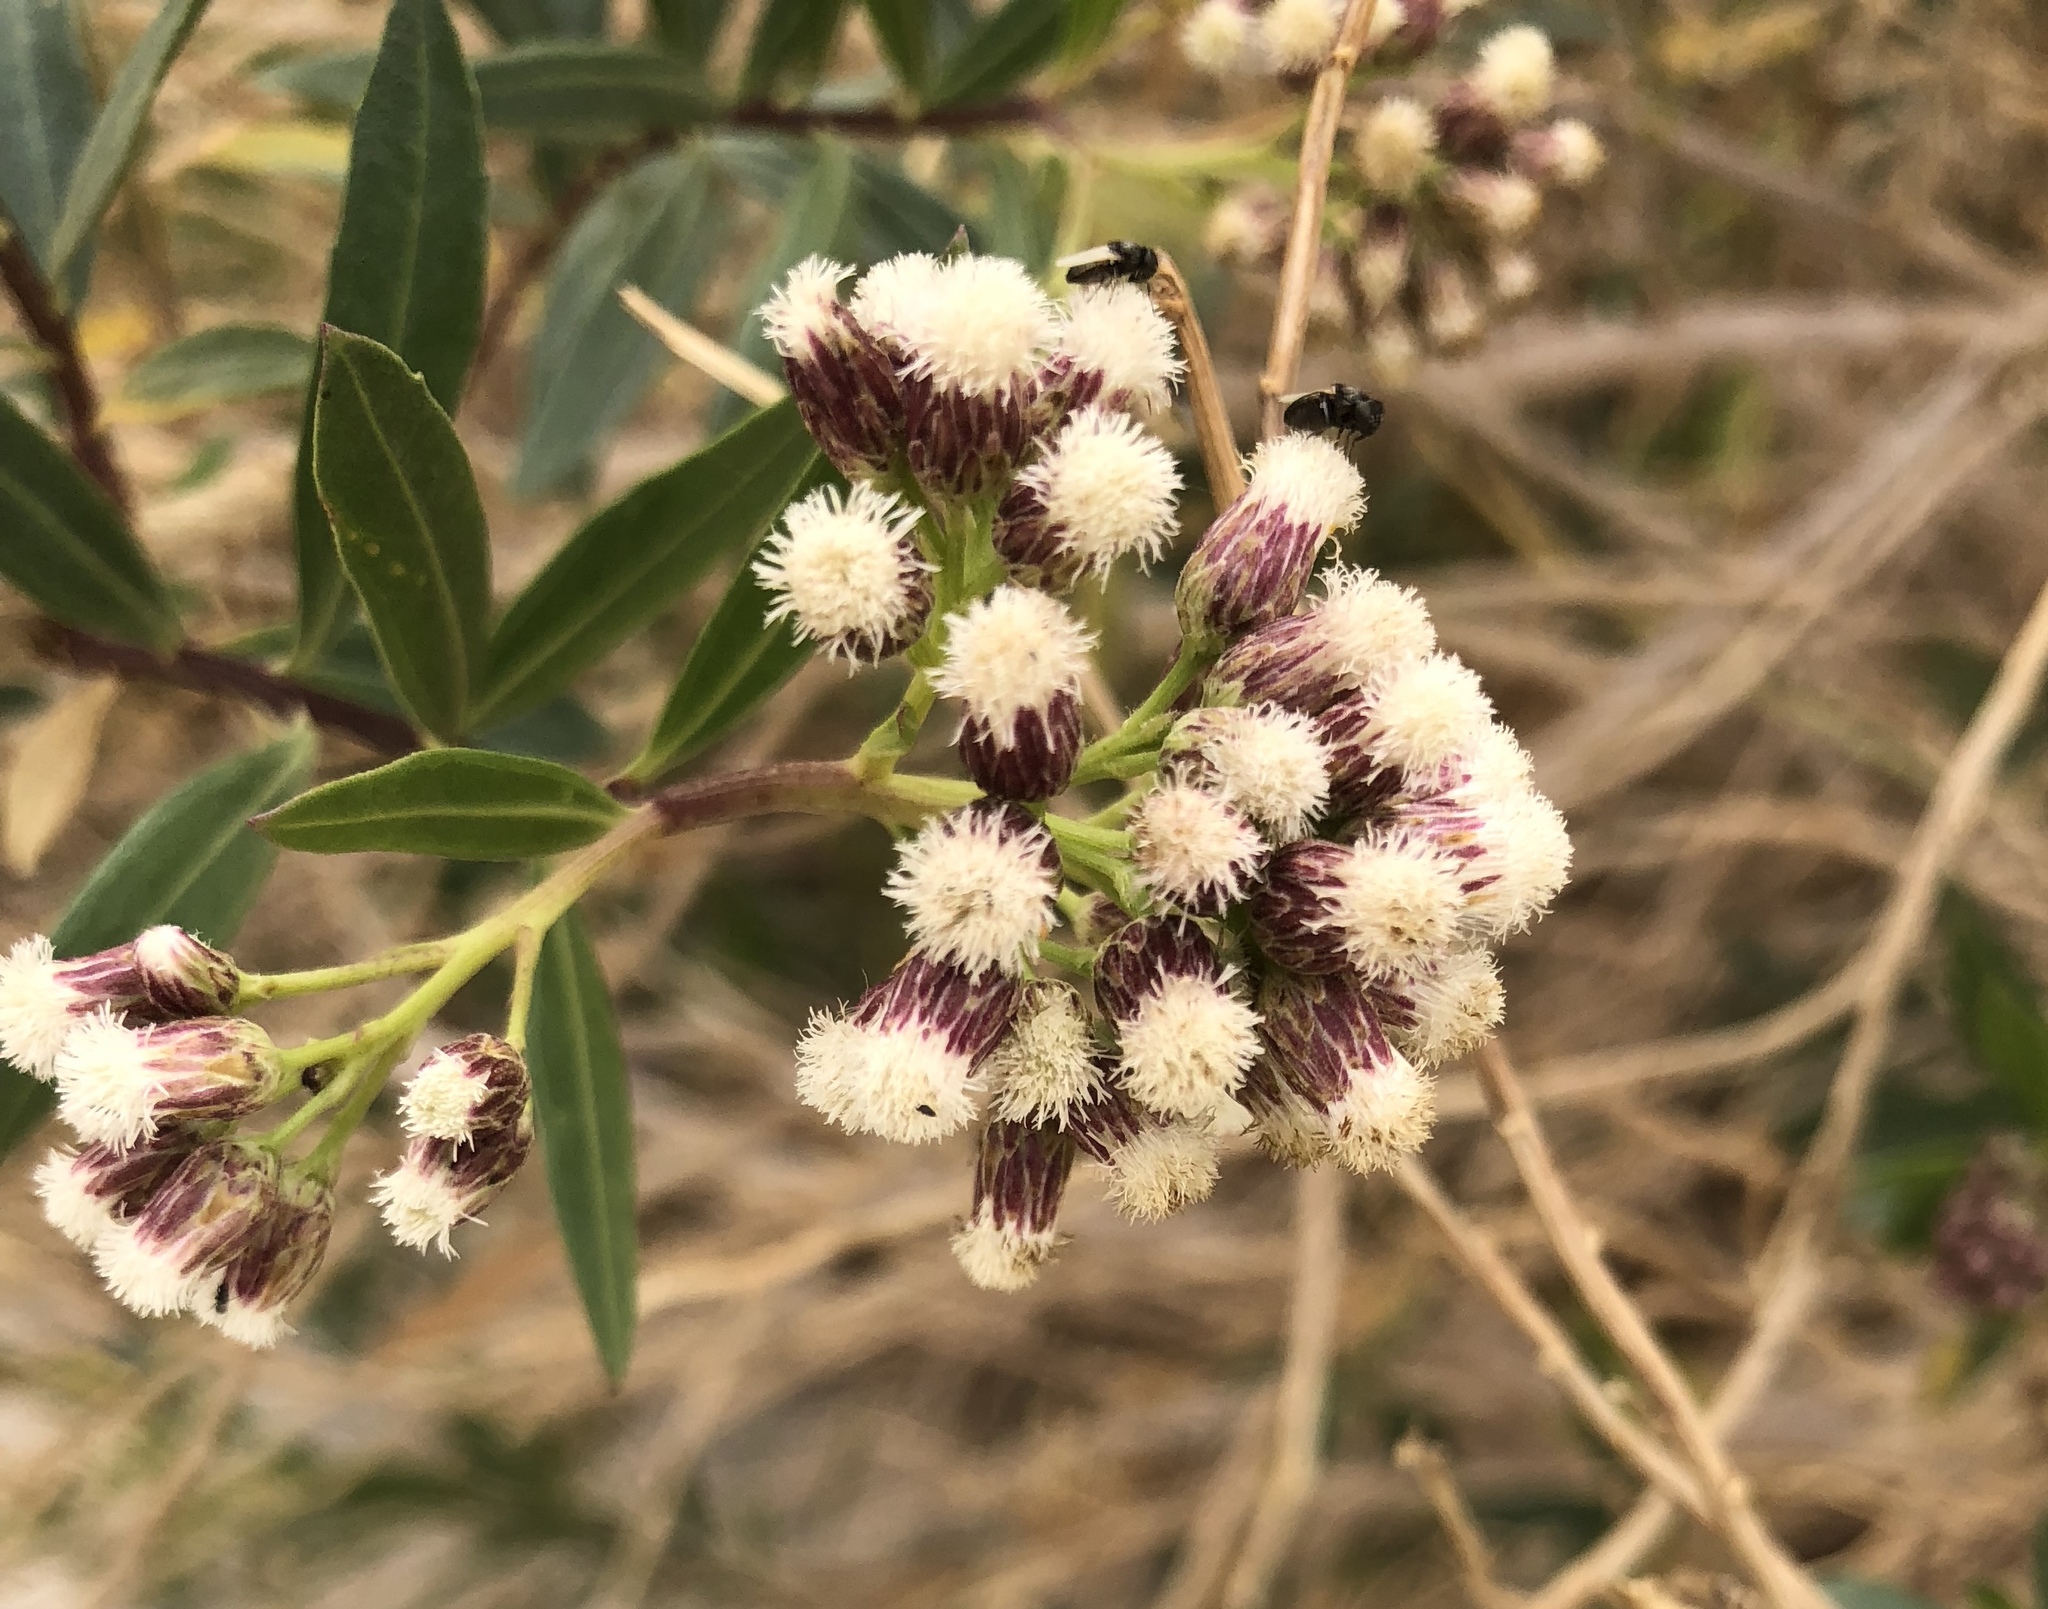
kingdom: Plantae
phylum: Tracheophyta
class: Magnoliopsida
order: Asterales
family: Asteraceae
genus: Baccharis
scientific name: Baccharis salicifolia
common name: Sticky baccharis
